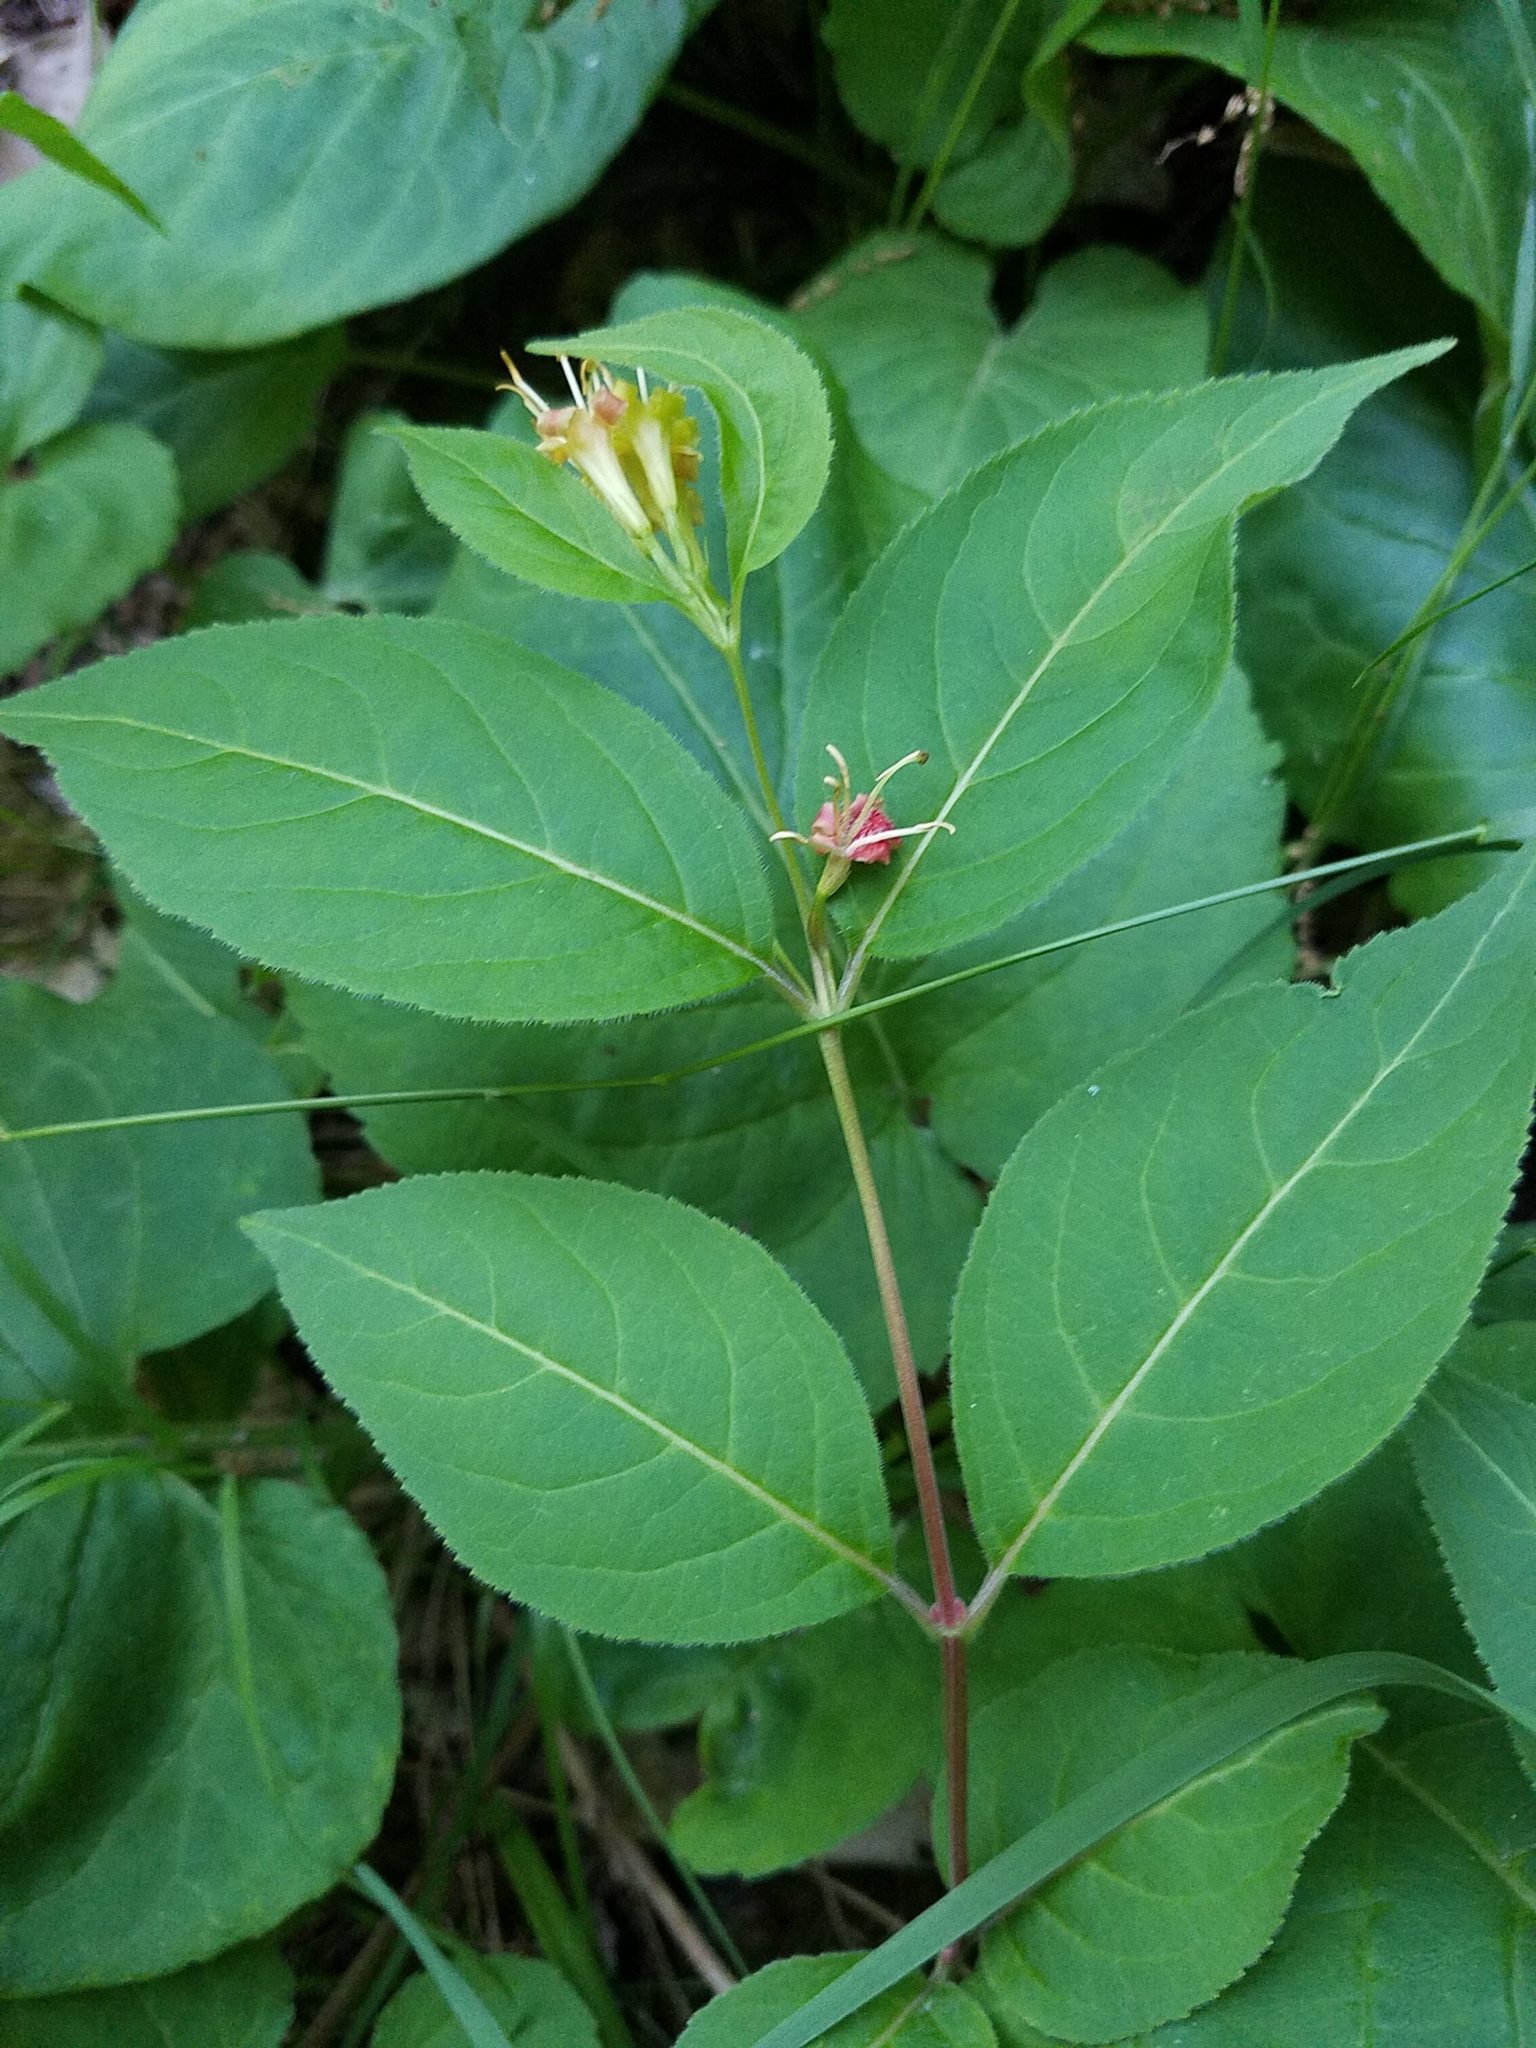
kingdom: Plantae
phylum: Tracheophyta
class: Magnoliopsida
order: Dipsacales
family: Caprifoliaceae
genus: Diervilla
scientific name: Diervilla lonicera
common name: Bush-honeysuckle
